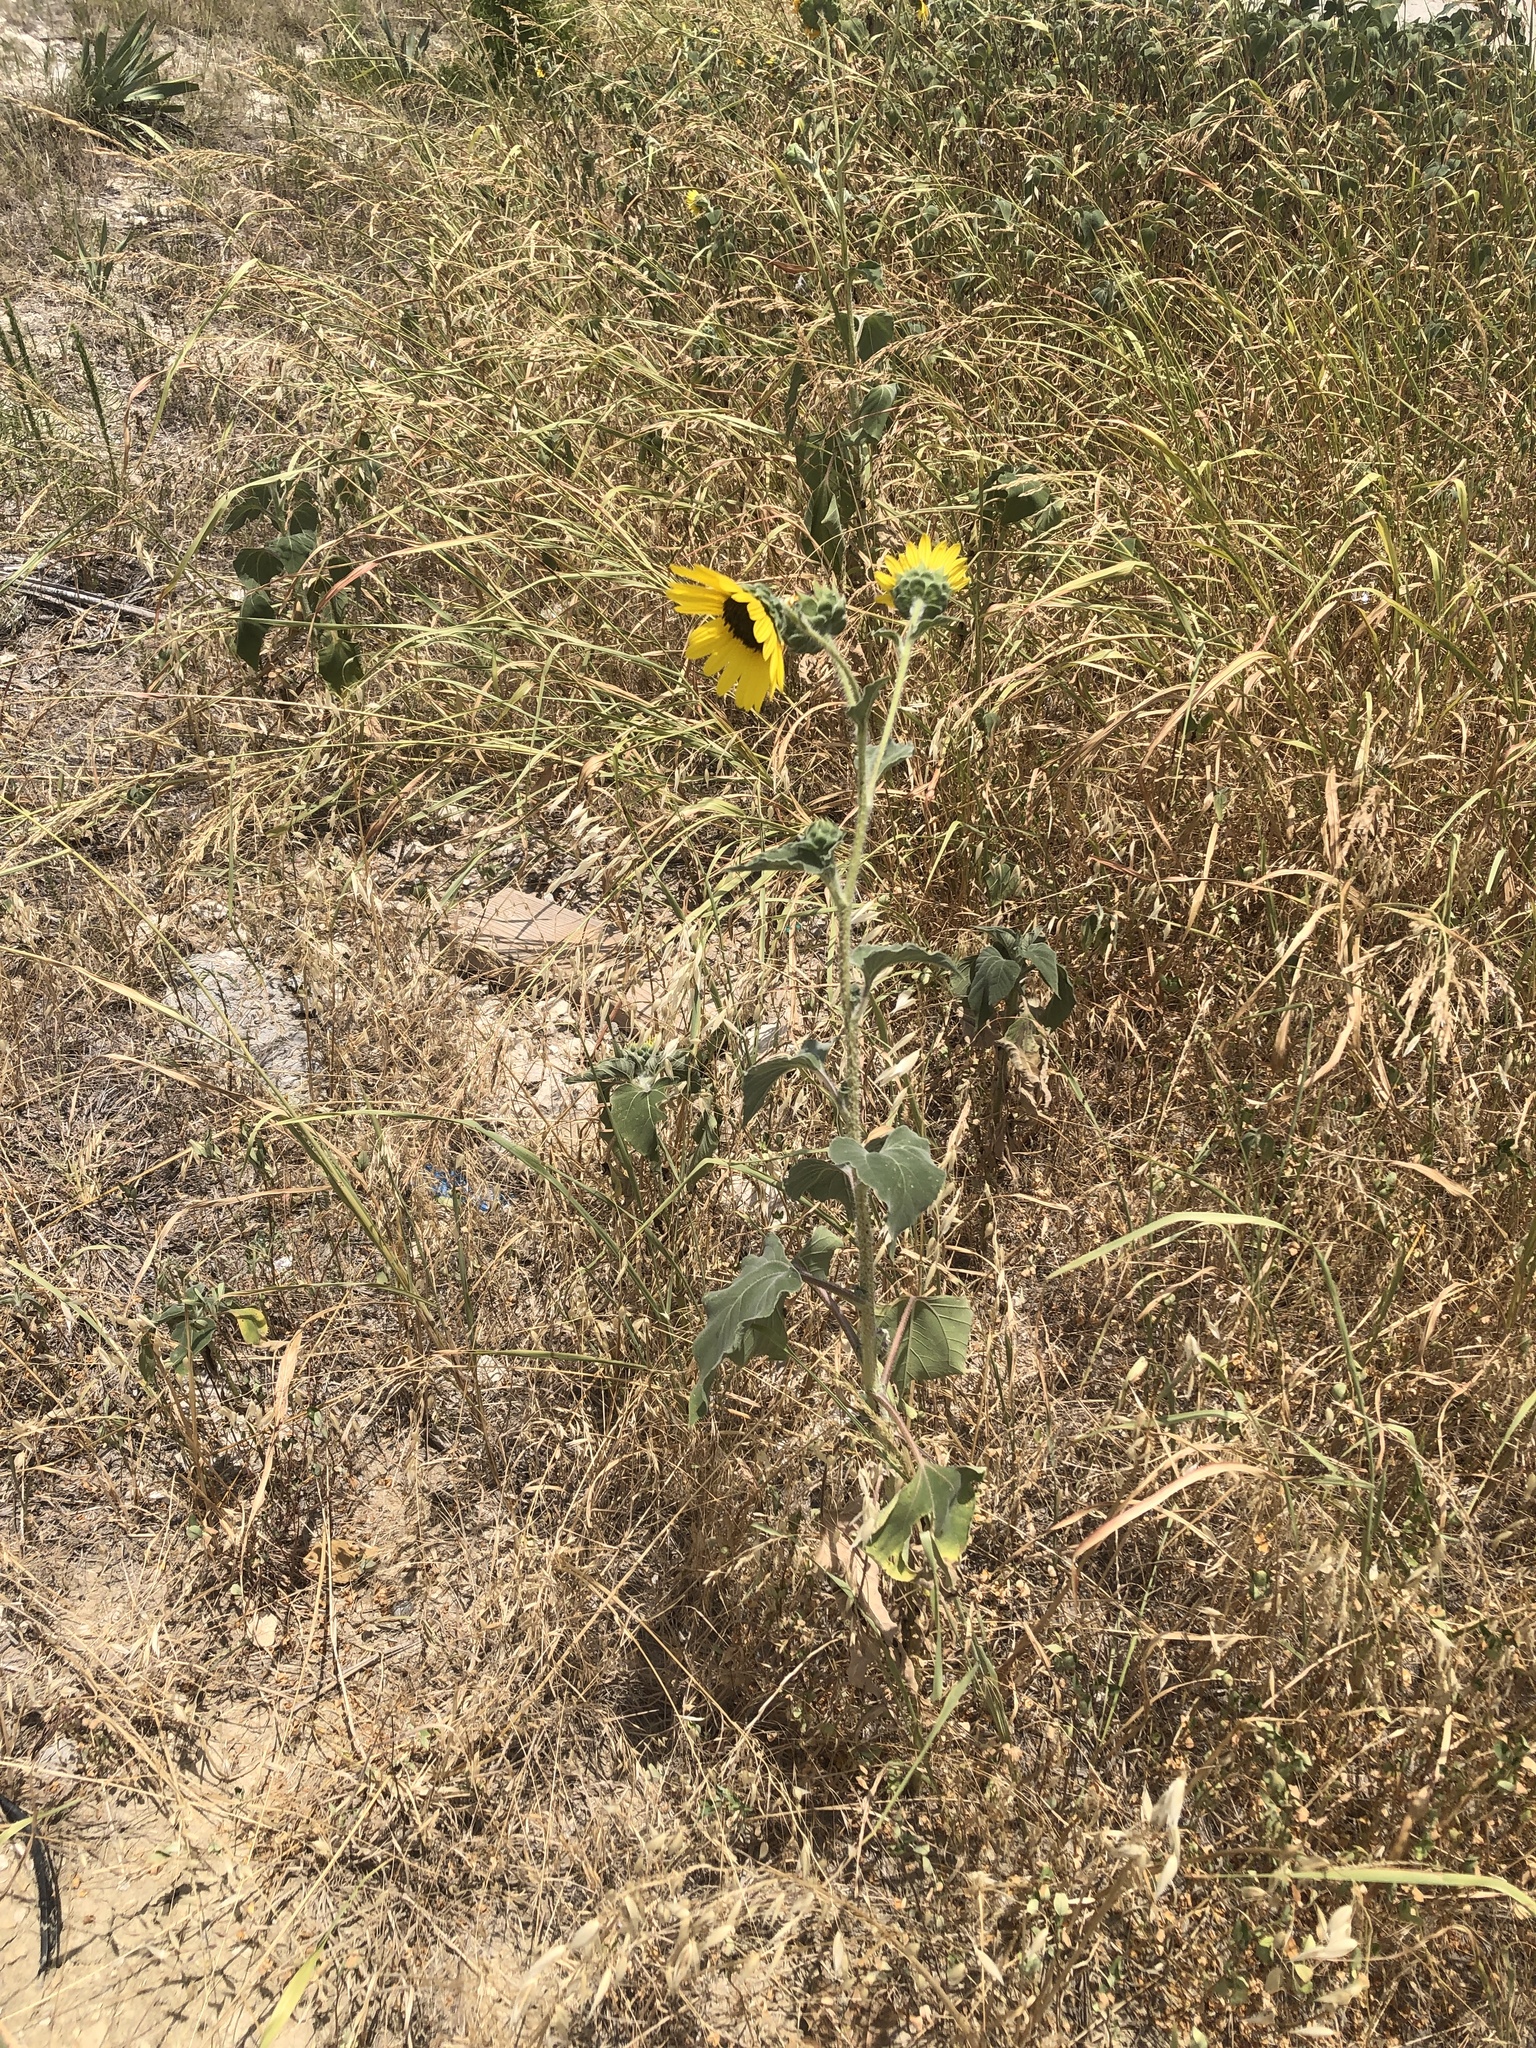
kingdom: Plantae
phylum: Tracheophyta
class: Magnoliopsida
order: Asterales
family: Asteraceae
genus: Helianthus
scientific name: Helianthus annuus
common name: Sunflower
